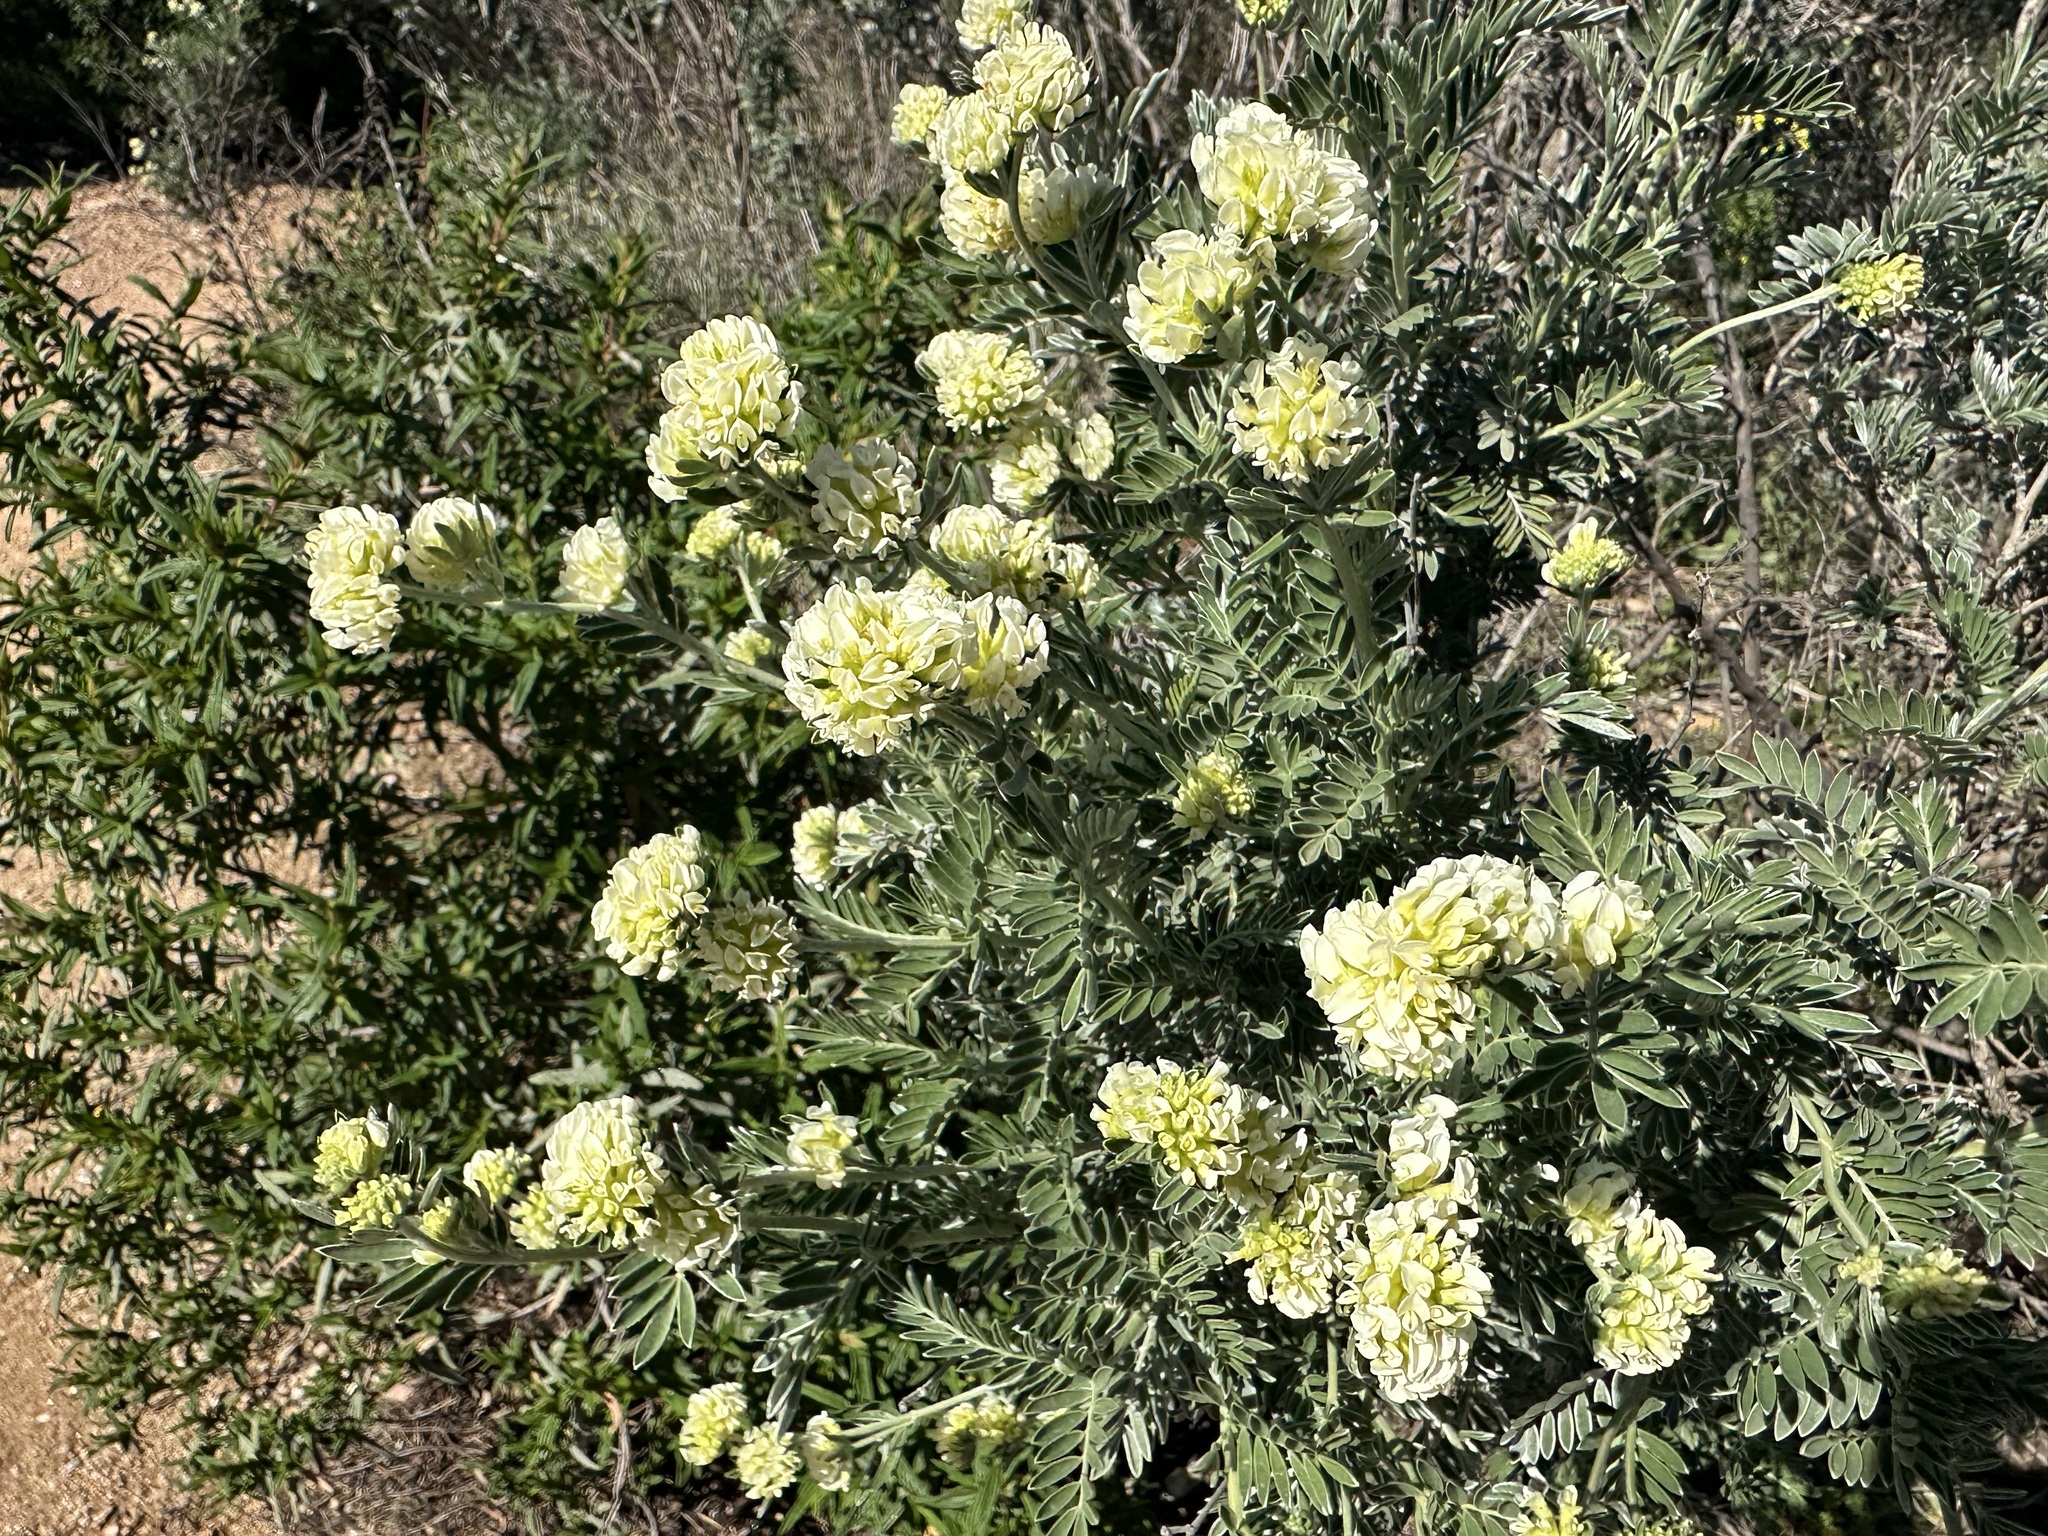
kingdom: Plantae
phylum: Tracheophyta
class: Magnoliopsida
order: Fabales
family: Fabaceae
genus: Anthyllis
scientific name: Anthyllis barba-jovis
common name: Jupiter's-beard
